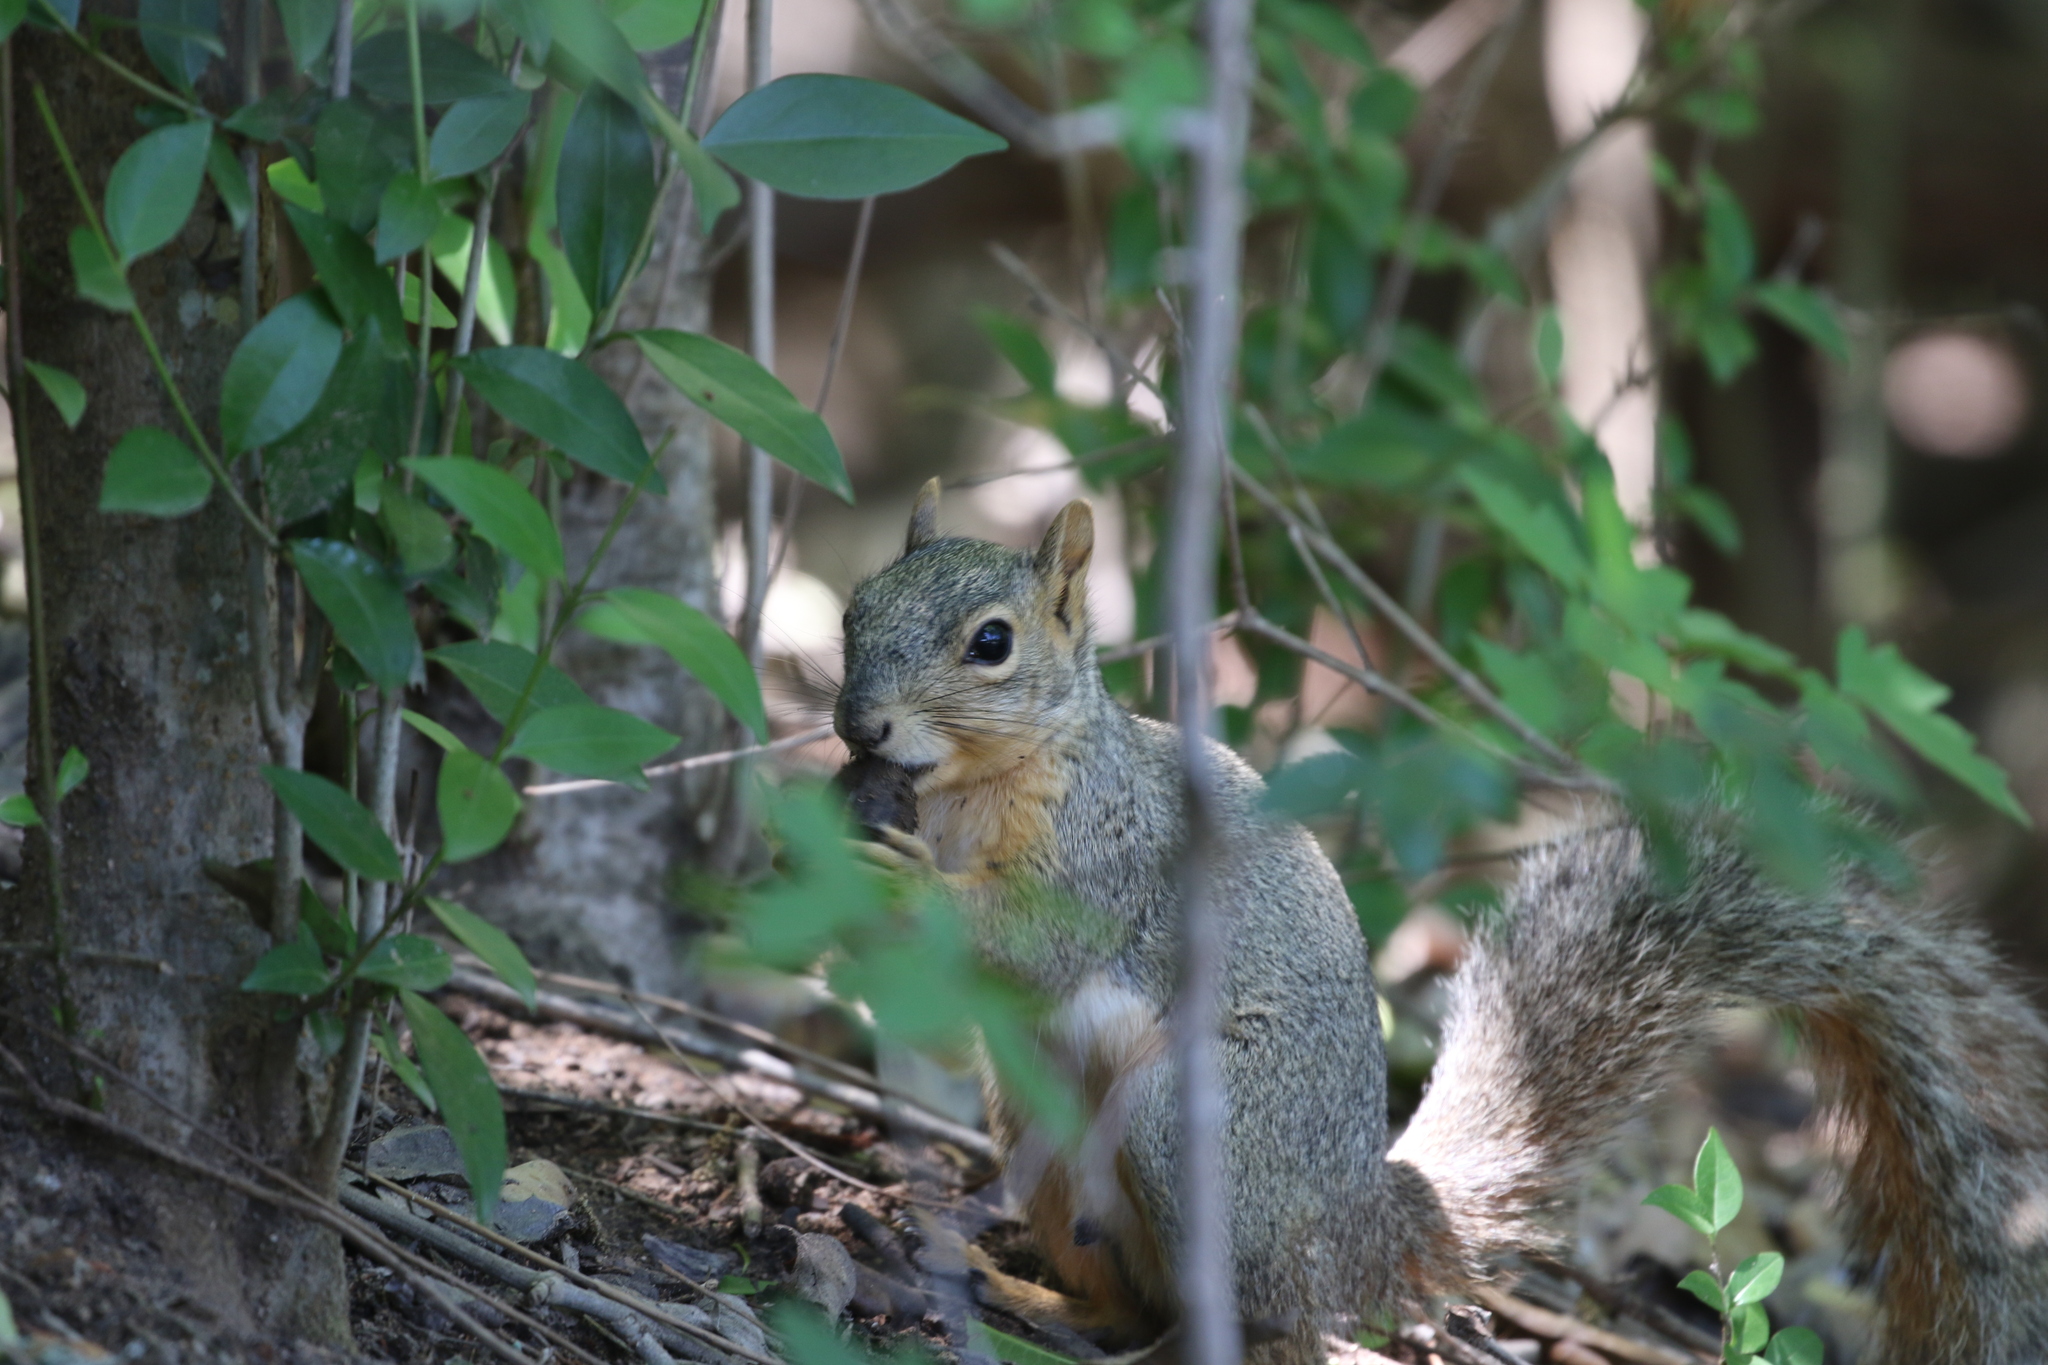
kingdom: Animalia
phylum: Chordata
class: Mammalia
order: Rodentia
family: Sciuridae
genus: Sciurus
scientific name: Sciurus niger
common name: Fox squirrel
